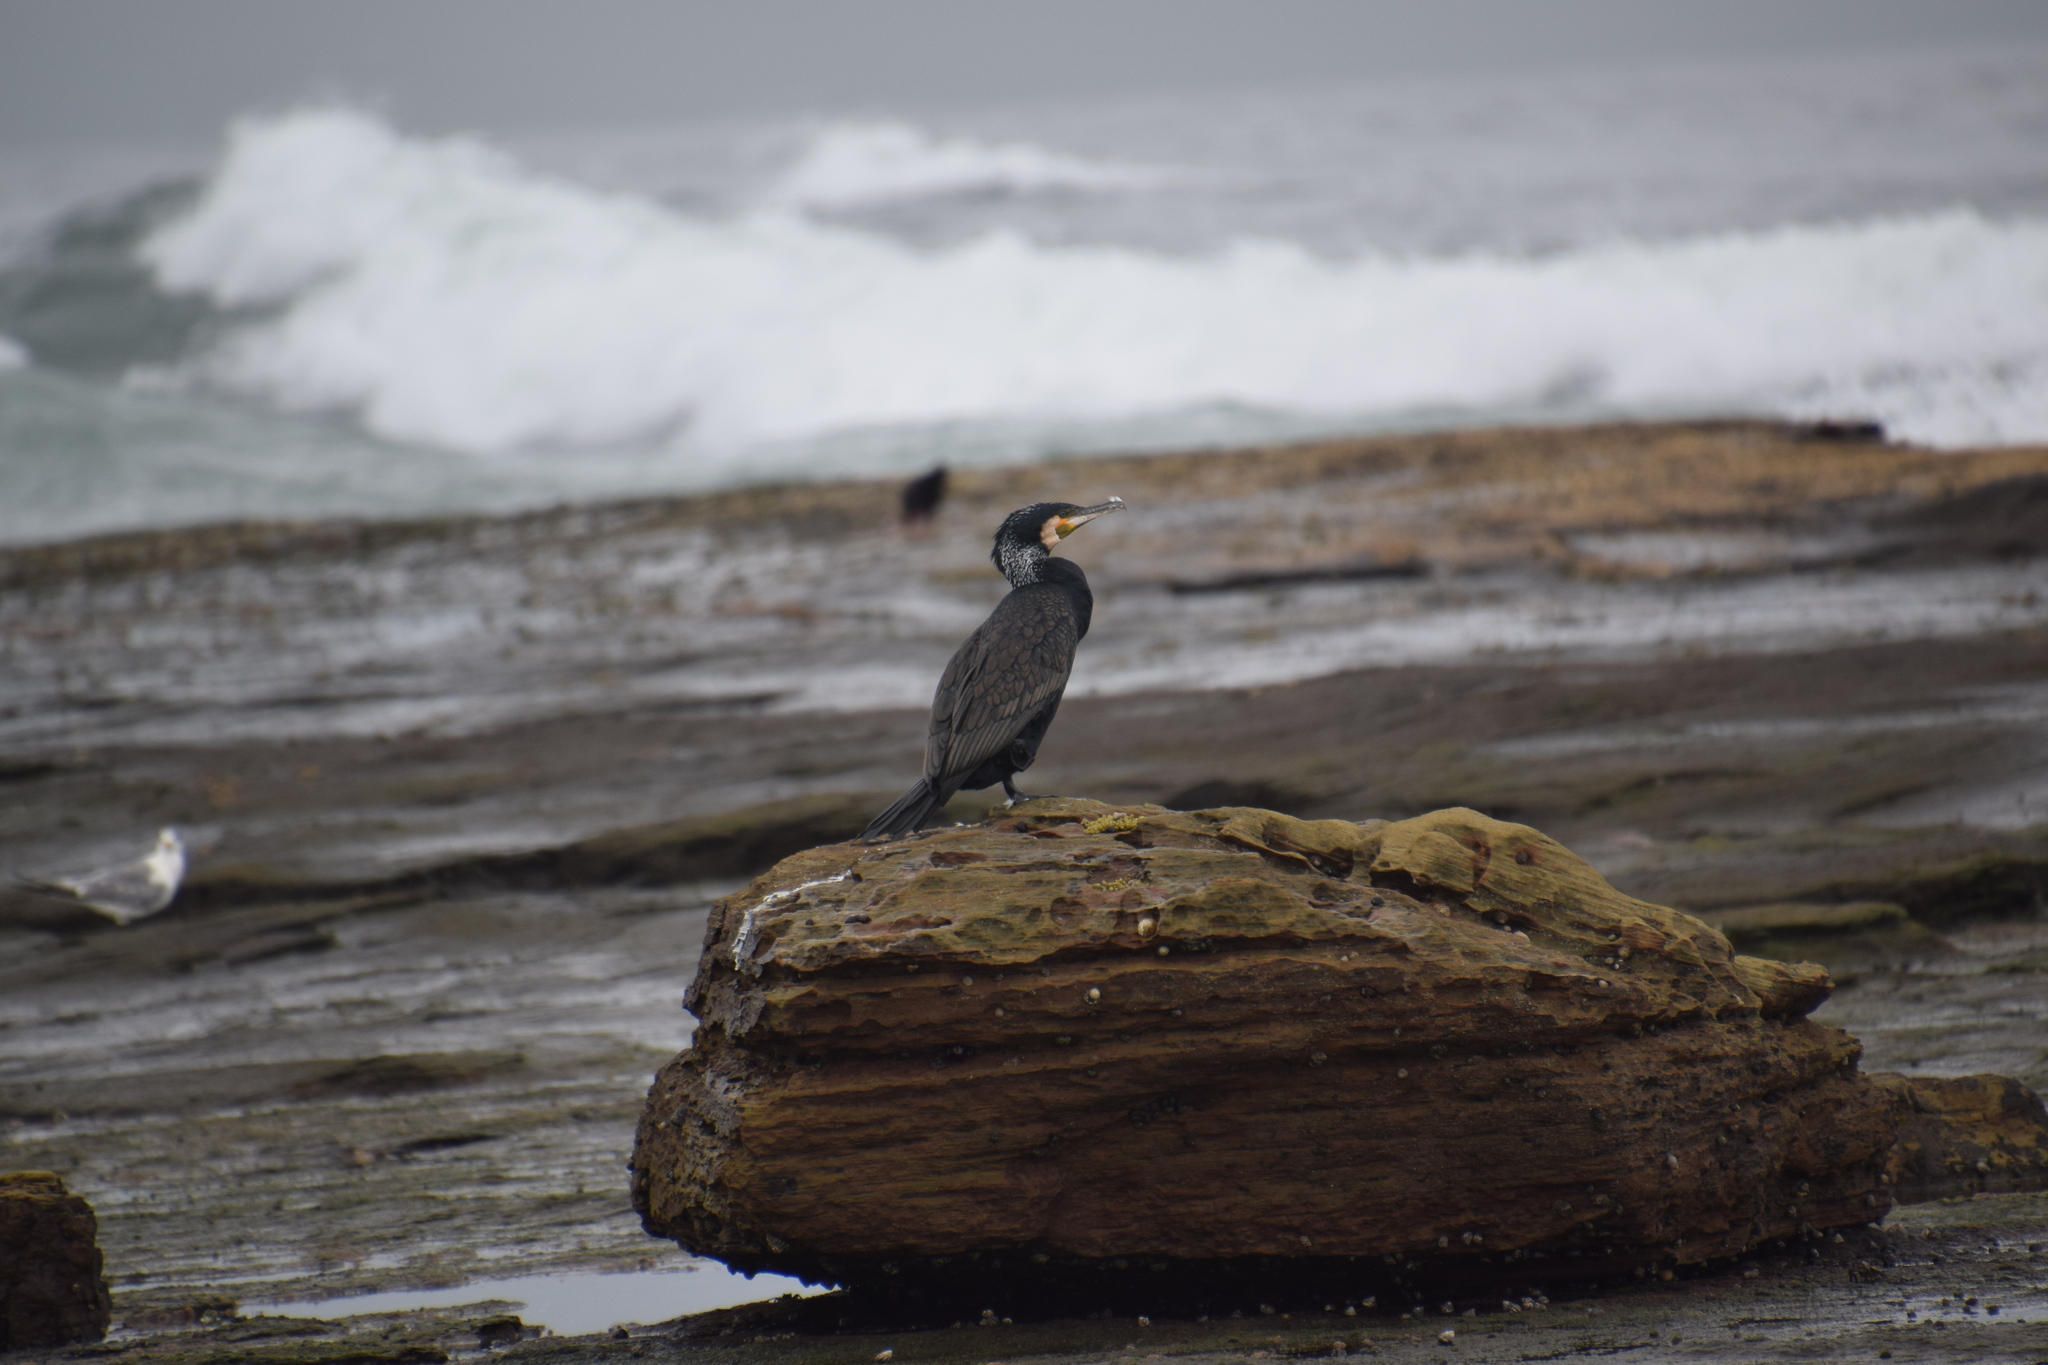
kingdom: Animalia
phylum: Chordata
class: Aves
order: Suliformes
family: Phalacrocoracidae
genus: Phalacrocorax
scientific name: Phalacrocorax carbo
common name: Great cormorant
